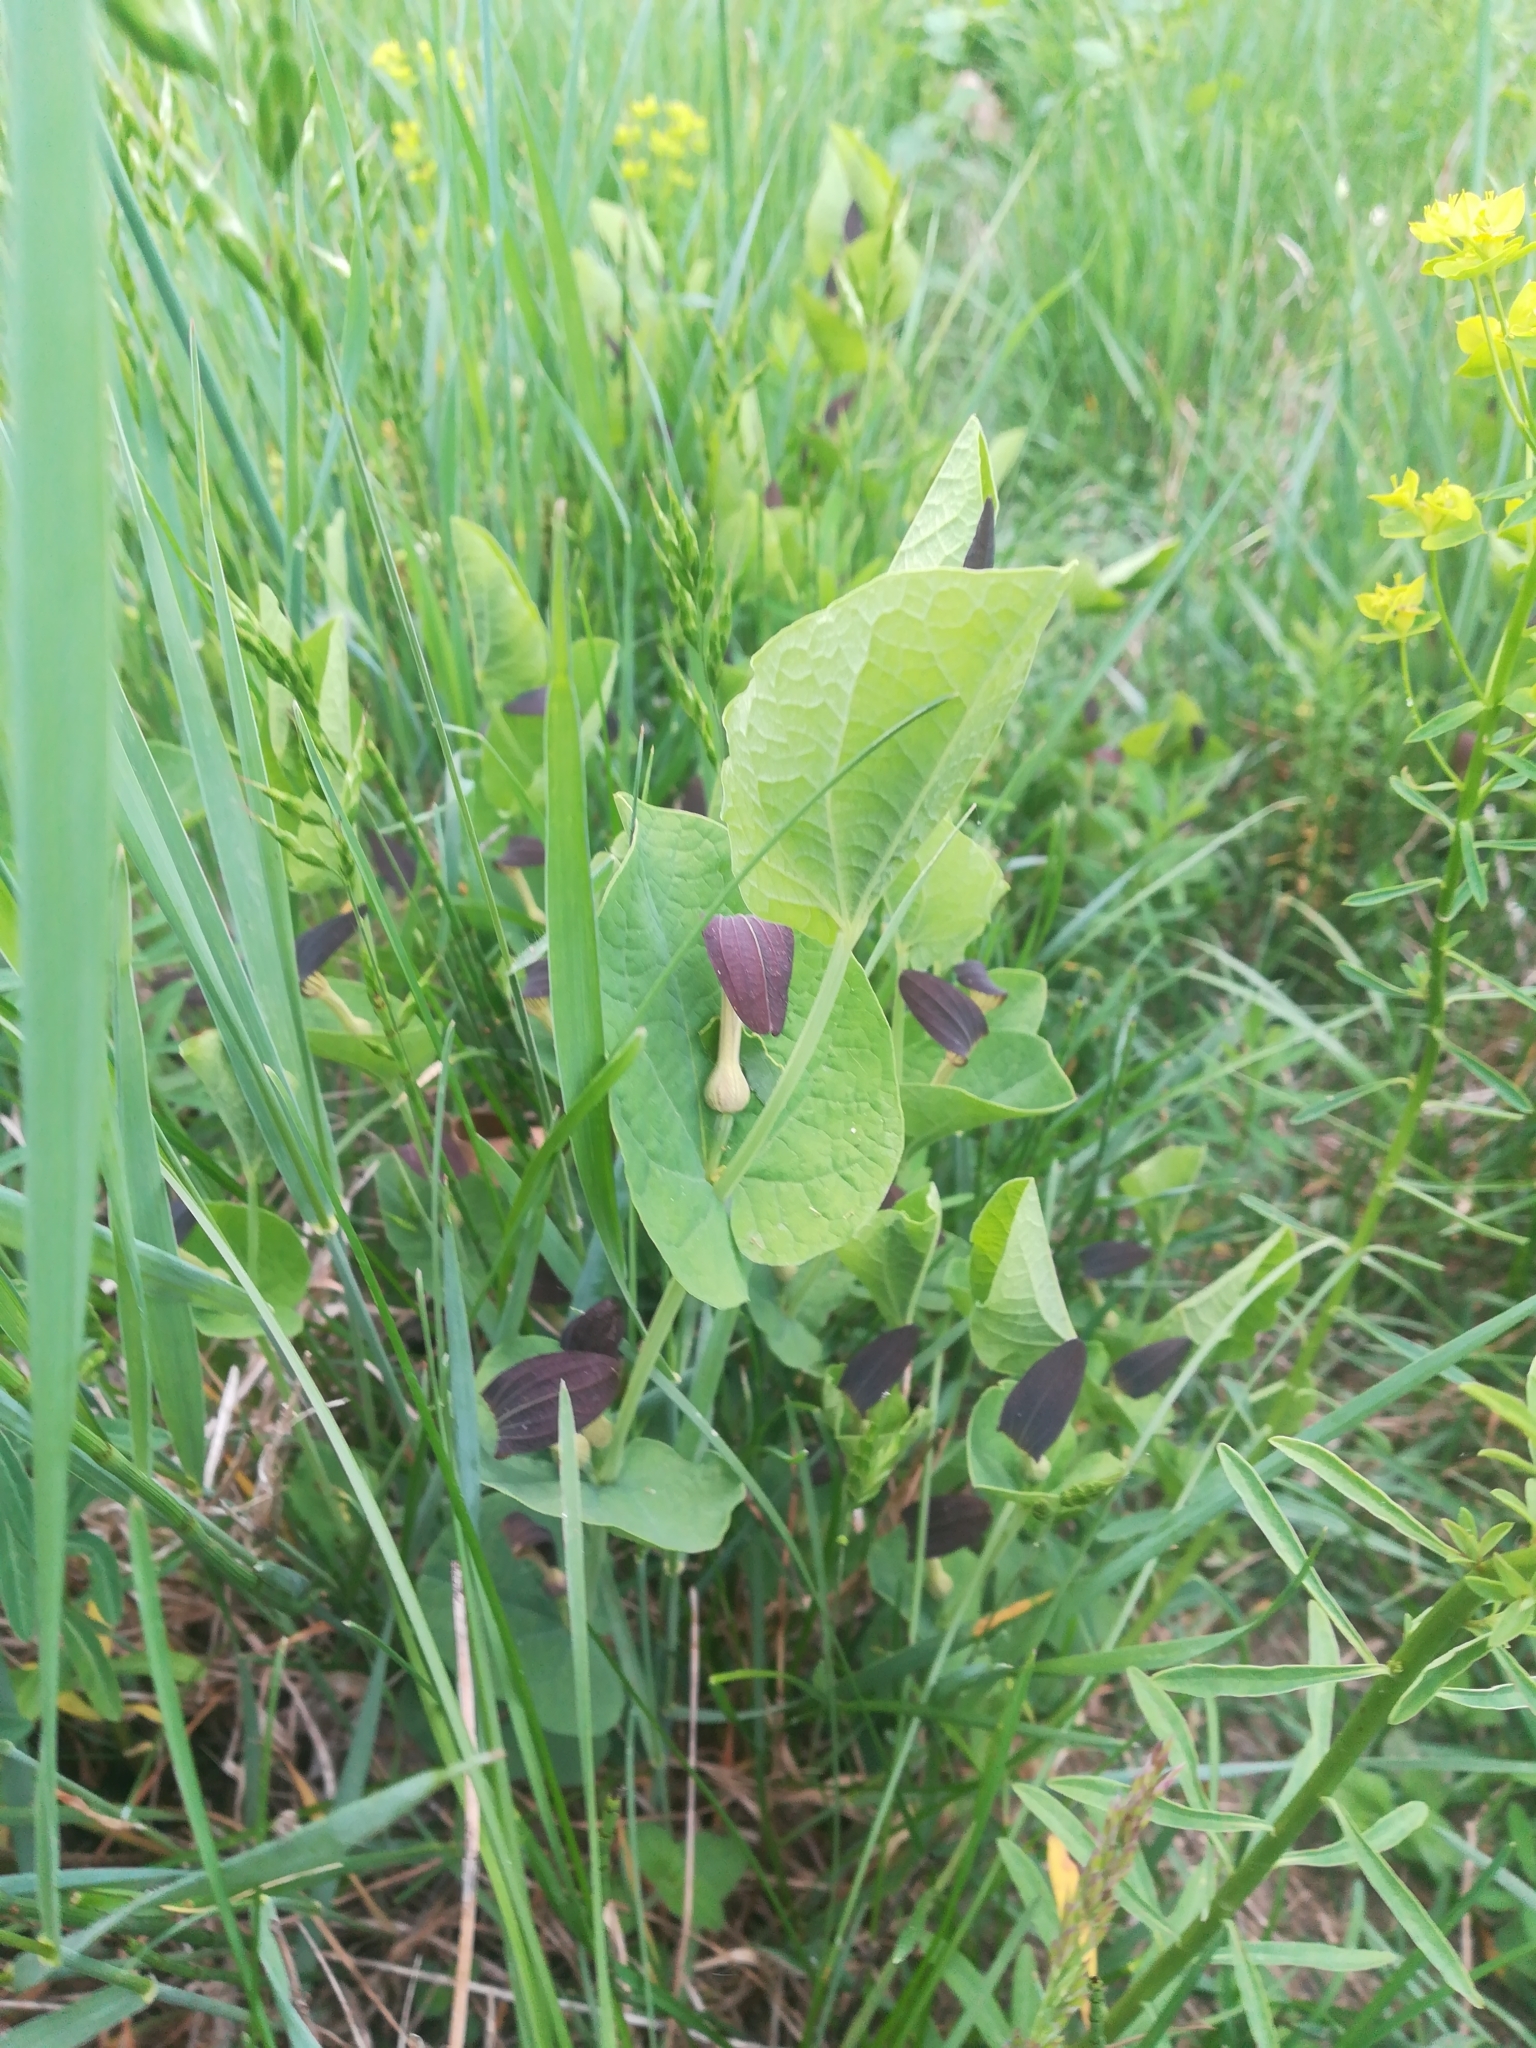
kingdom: Plantae
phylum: Tracheophyta
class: Magnoliopsida
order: Piperales
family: Aristolochiaceae
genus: Aristolochia
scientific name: Aristolochia rotunda
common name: Smearwort
